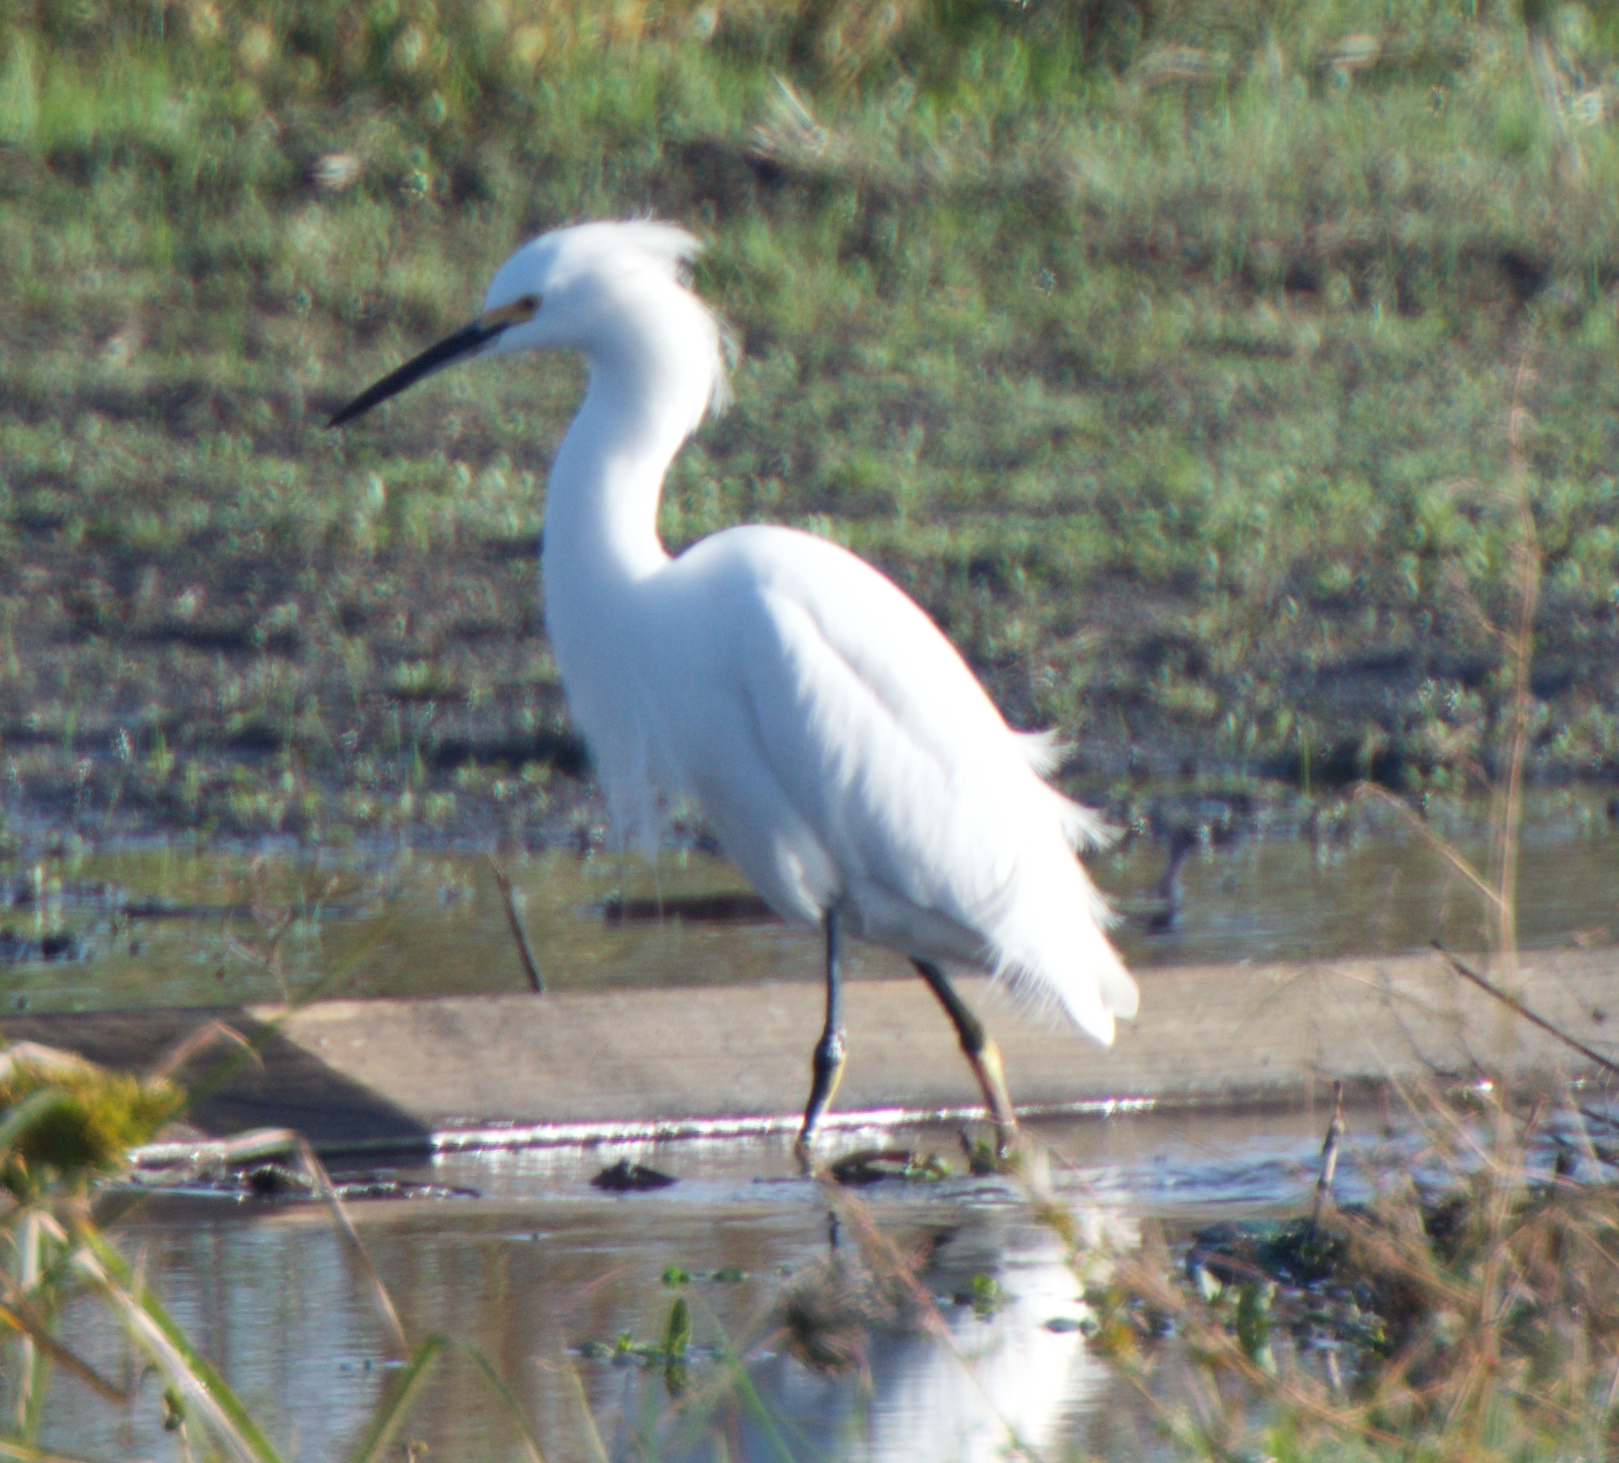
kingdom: Animalia
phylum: Chordata
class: Aves
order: Pelecaniformes
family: Ardeidae
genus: Egretta
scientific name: Egretta thula
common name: Snowy egret
